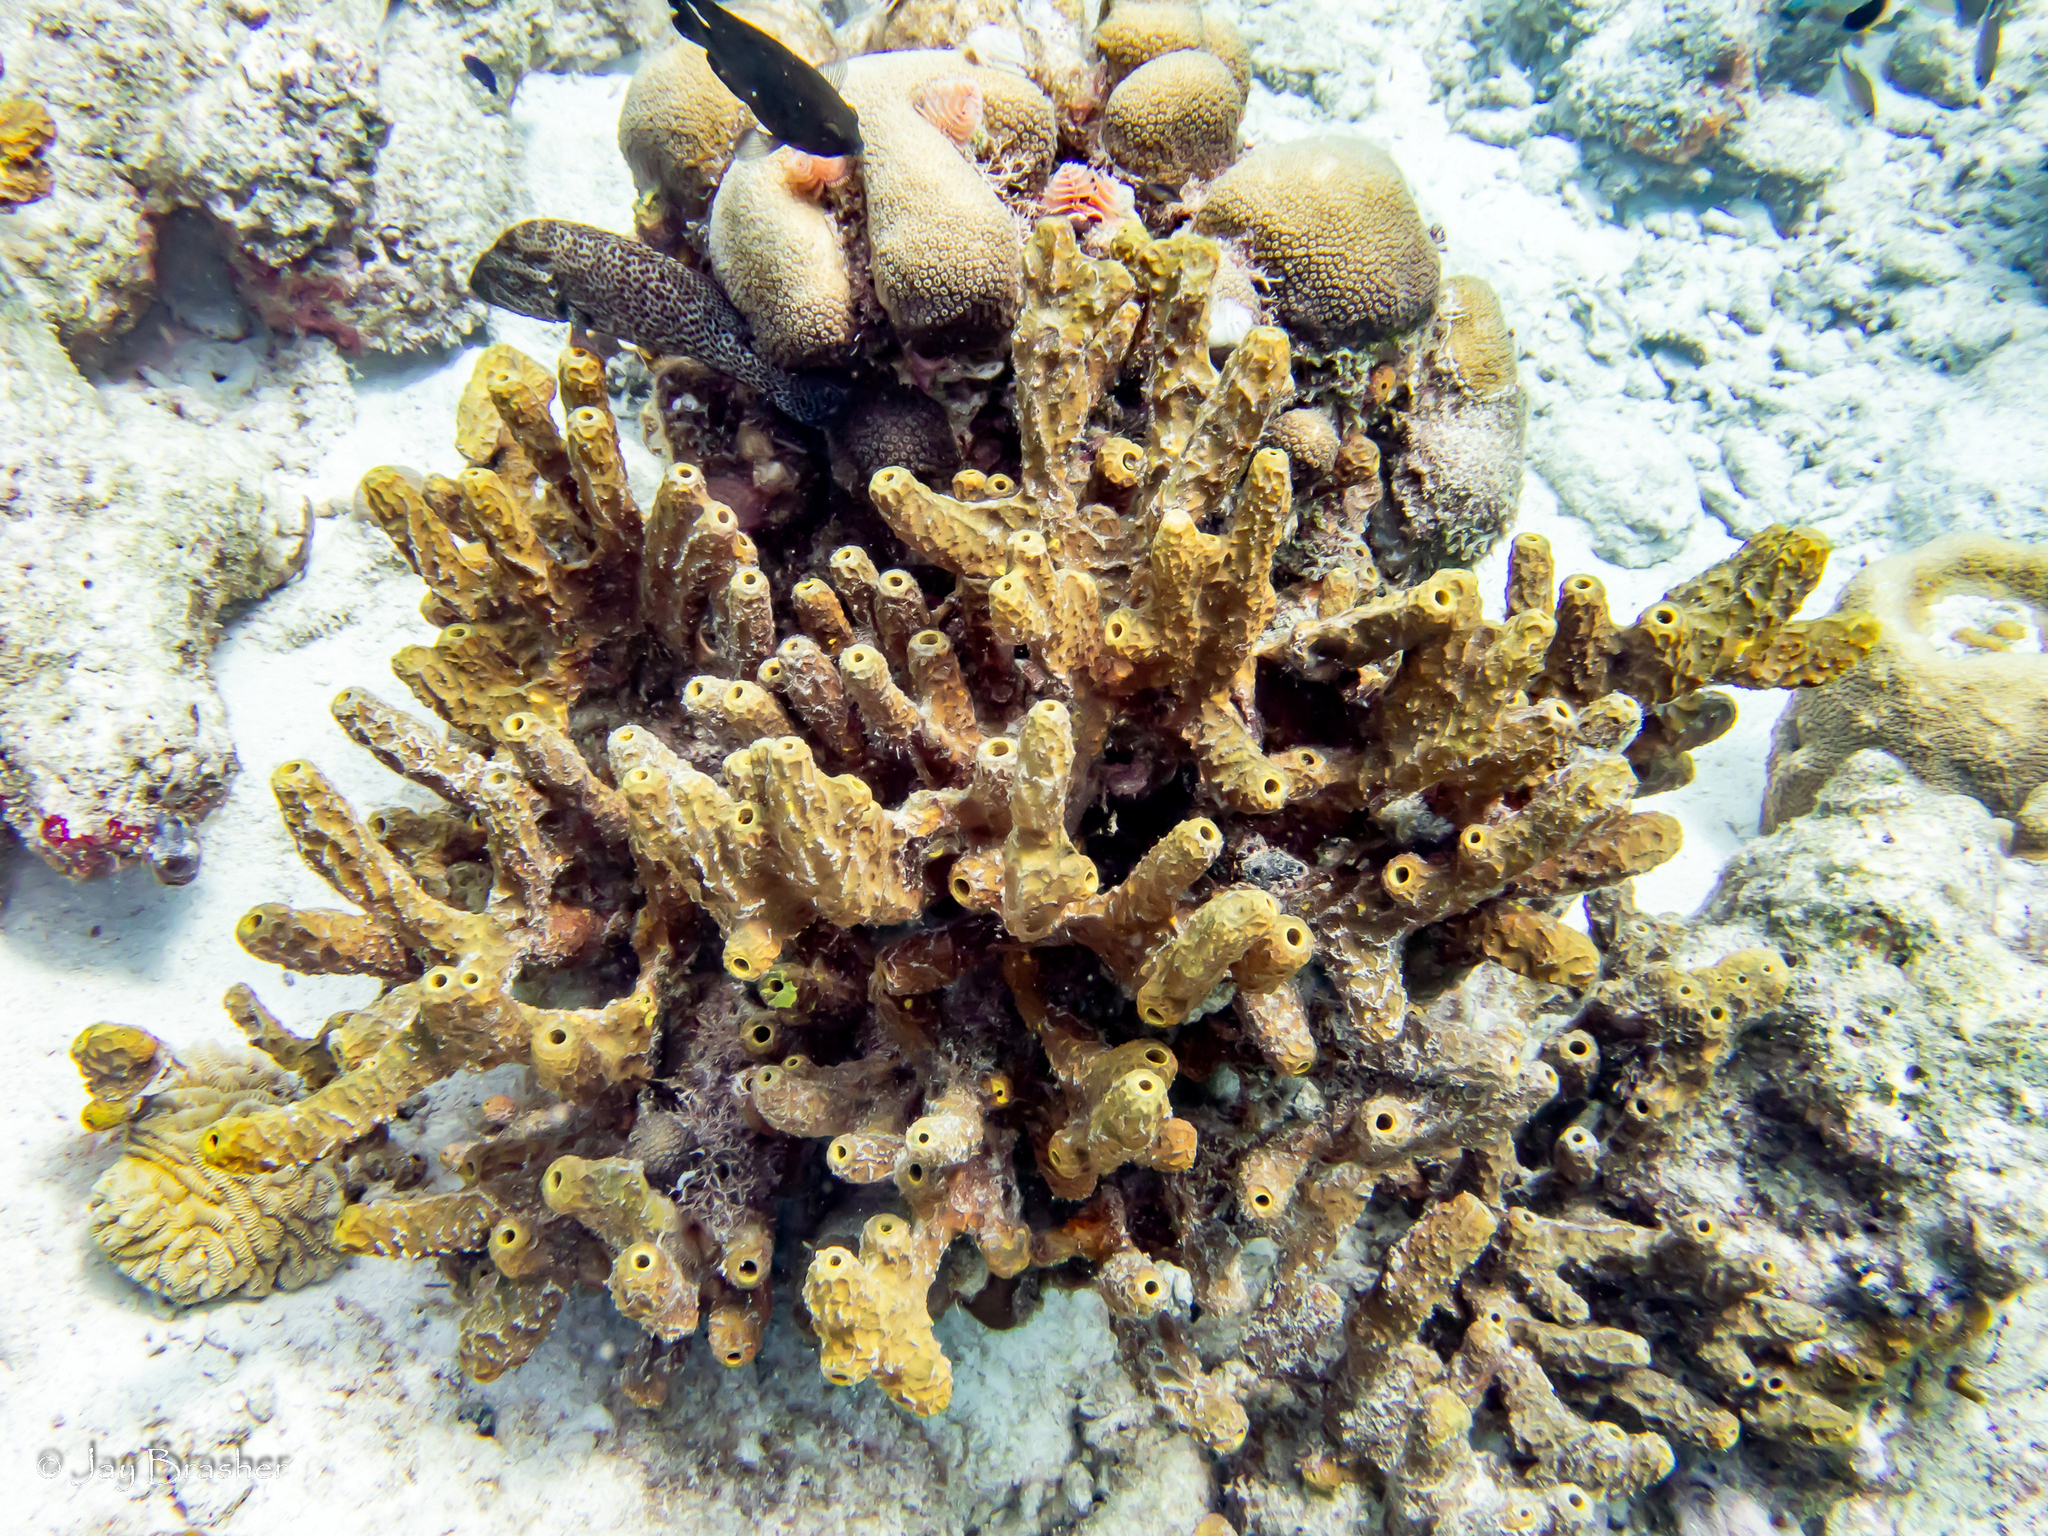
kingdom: Animalia
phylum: Cnidaria
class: Anthozoa
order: Scleractinia
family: Merulinidae
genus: Orbicella
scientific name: Orbicella annularis
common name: Boulder star coral
